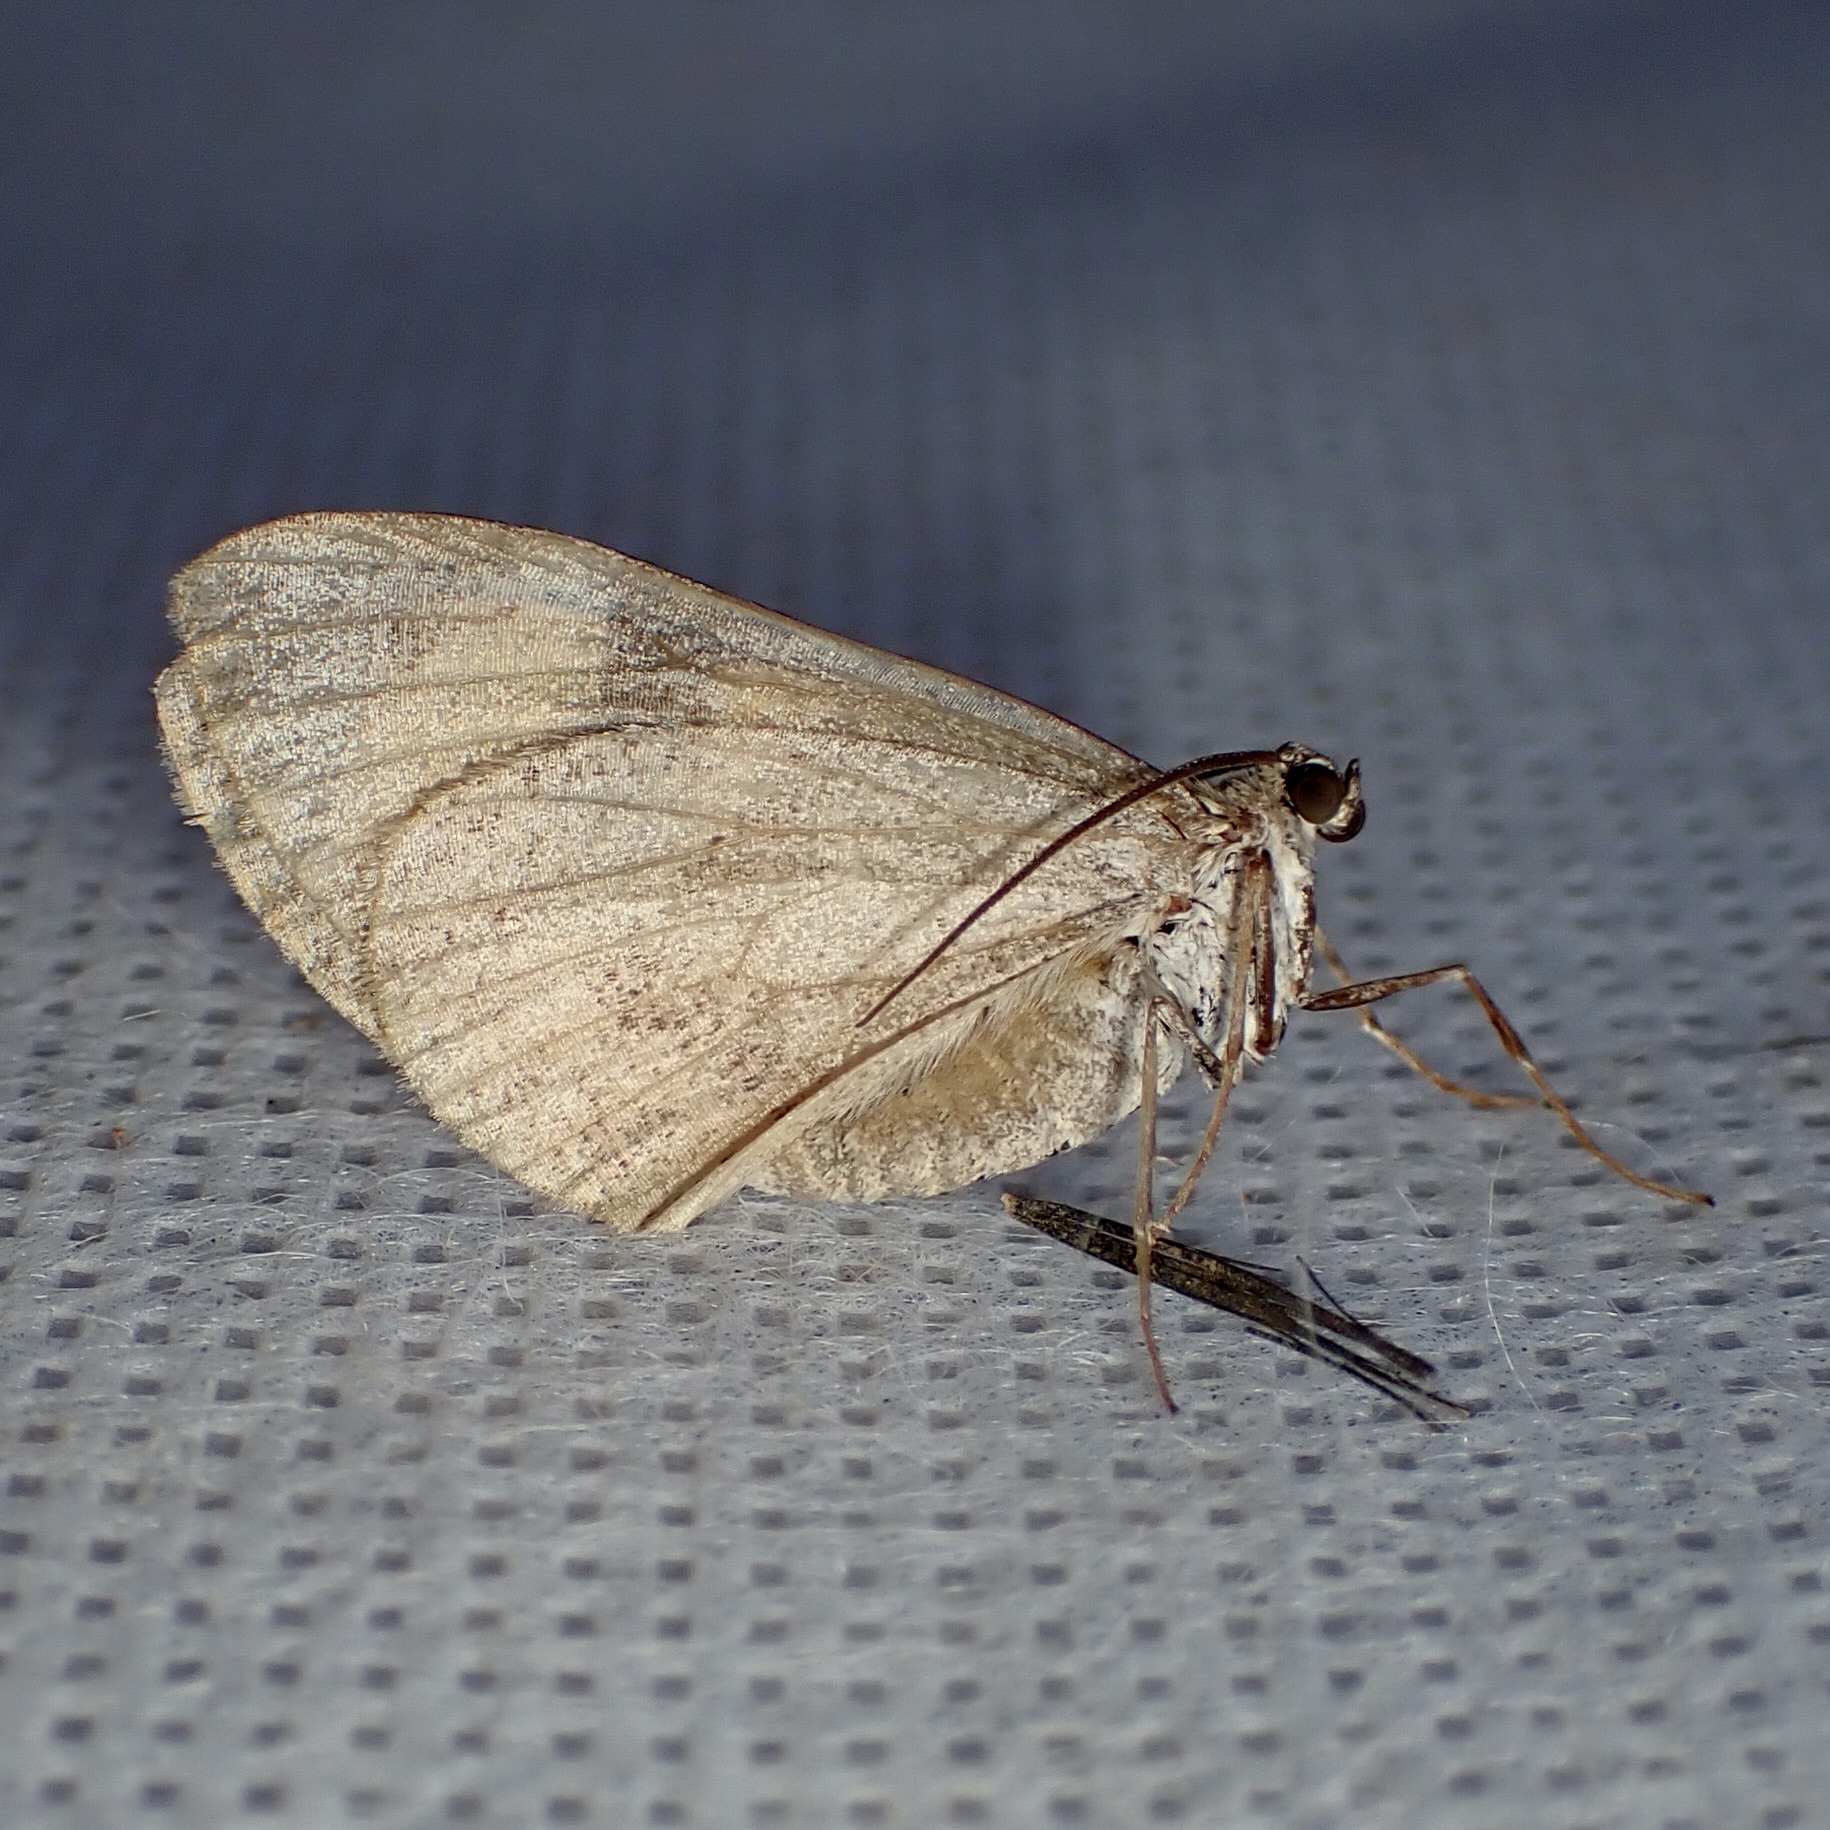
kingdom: Animalia
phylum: Arthropoda
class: Insecta
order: Lepidoptera
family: Geometridae
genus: Stamnodes
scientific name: Stamnodes seiferti
